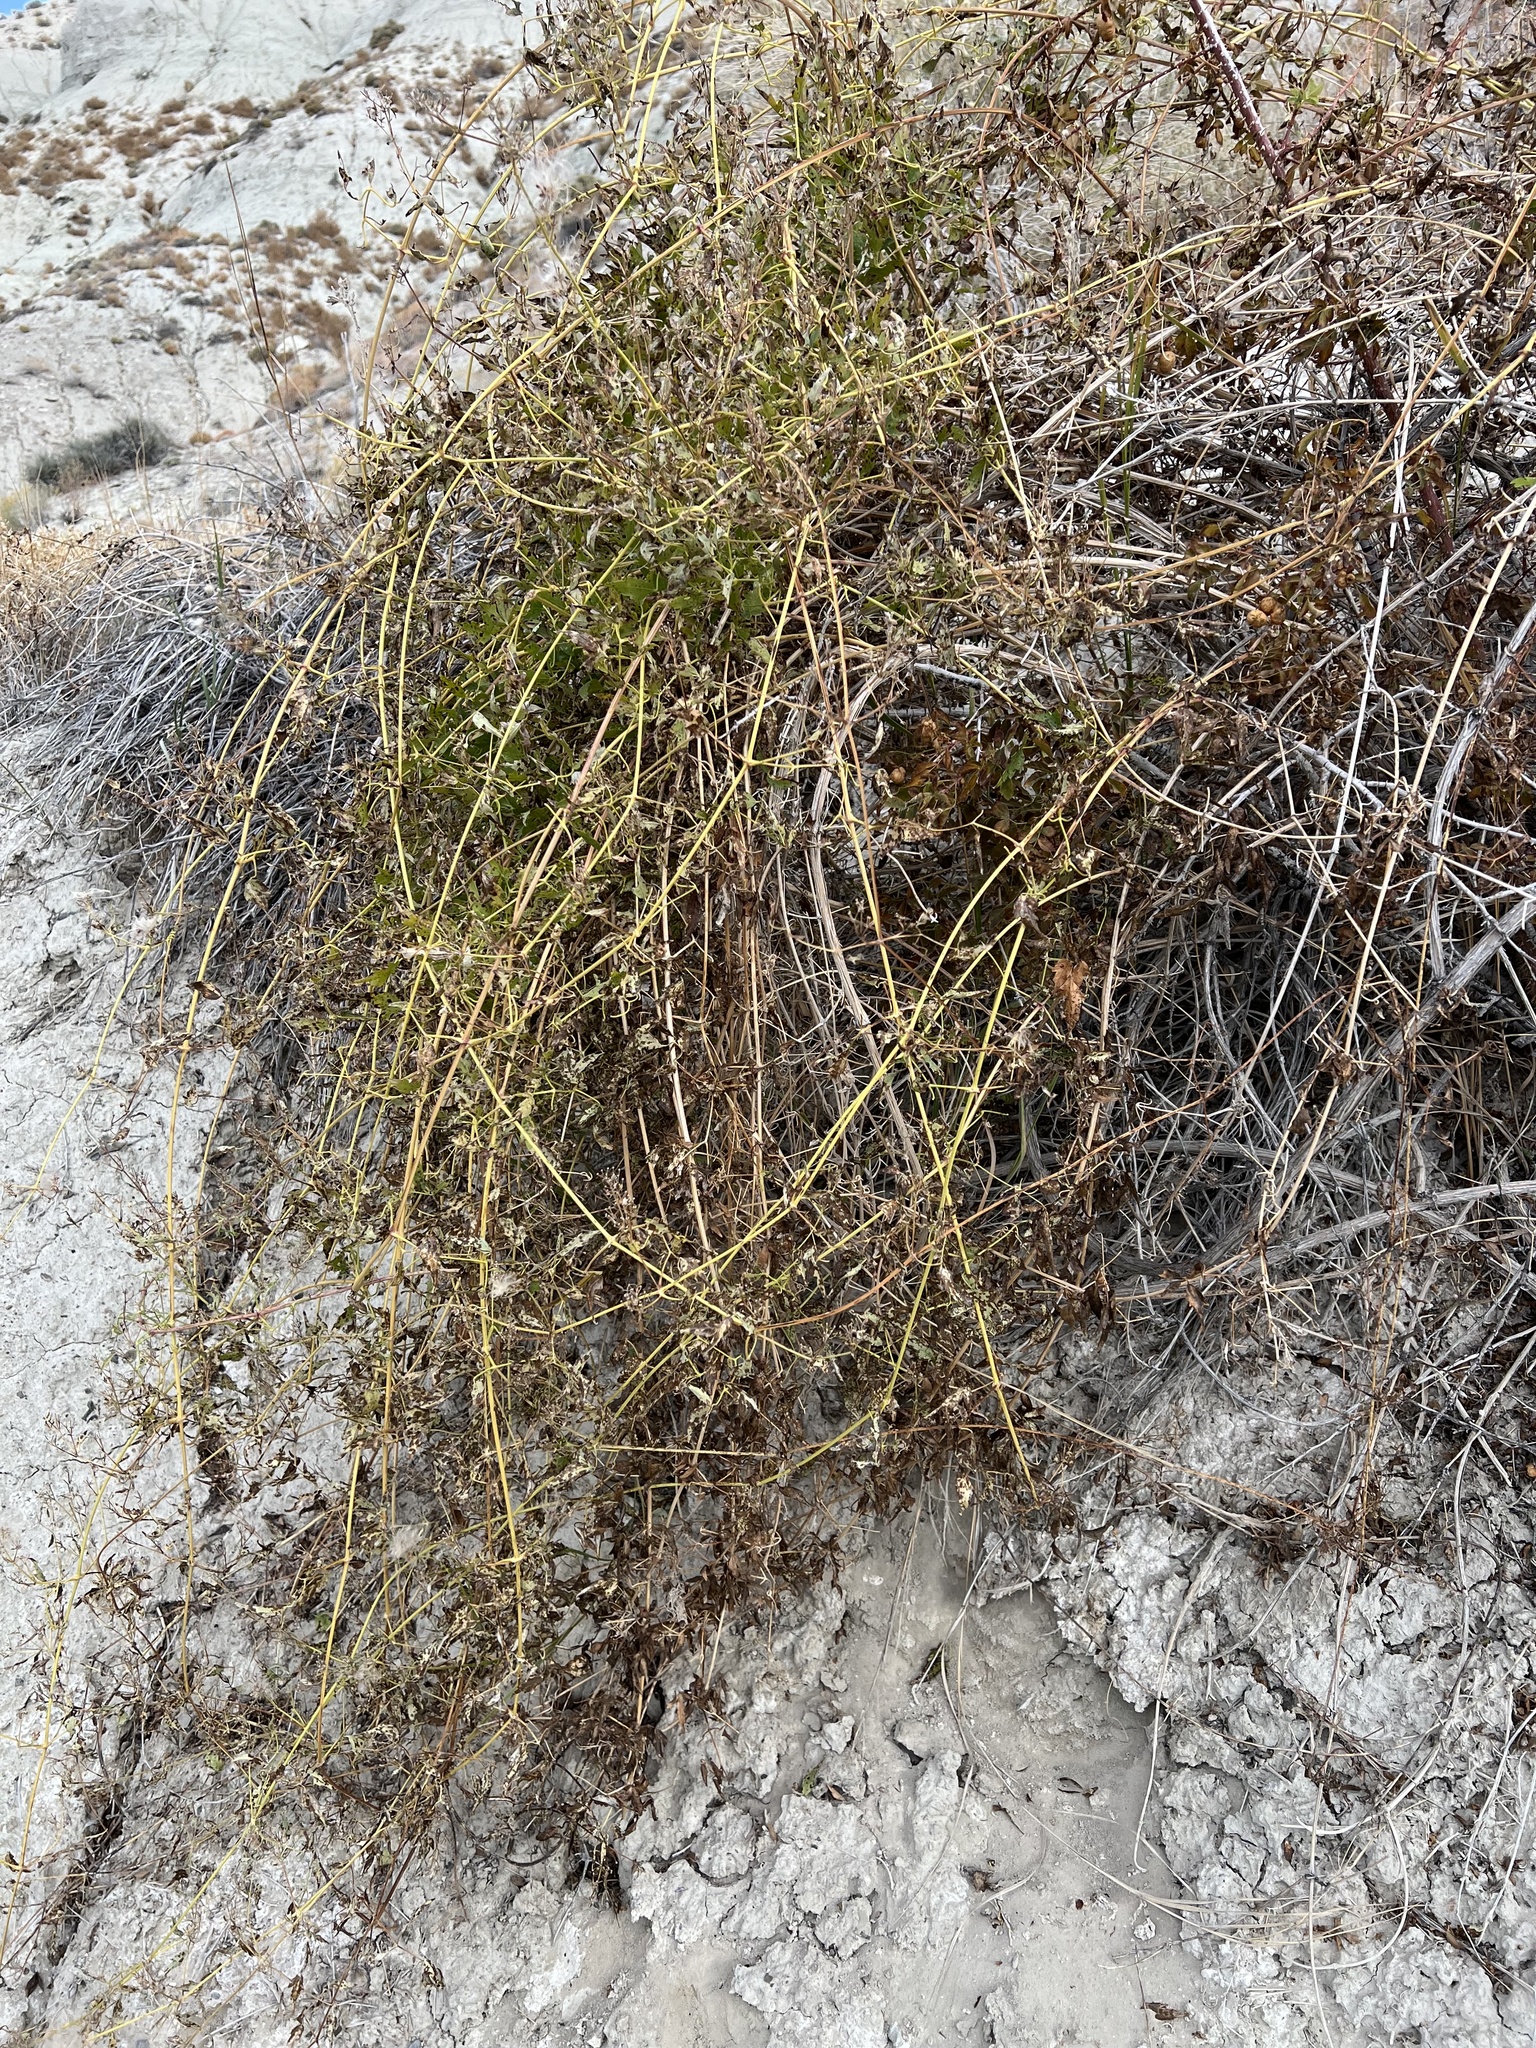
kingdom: Plantae
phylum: Tracheophyta
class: Magnoliopsida
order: Ranunculales
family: Ranunculaceae
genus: Clematis
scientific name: Clematis ligusticifolia
